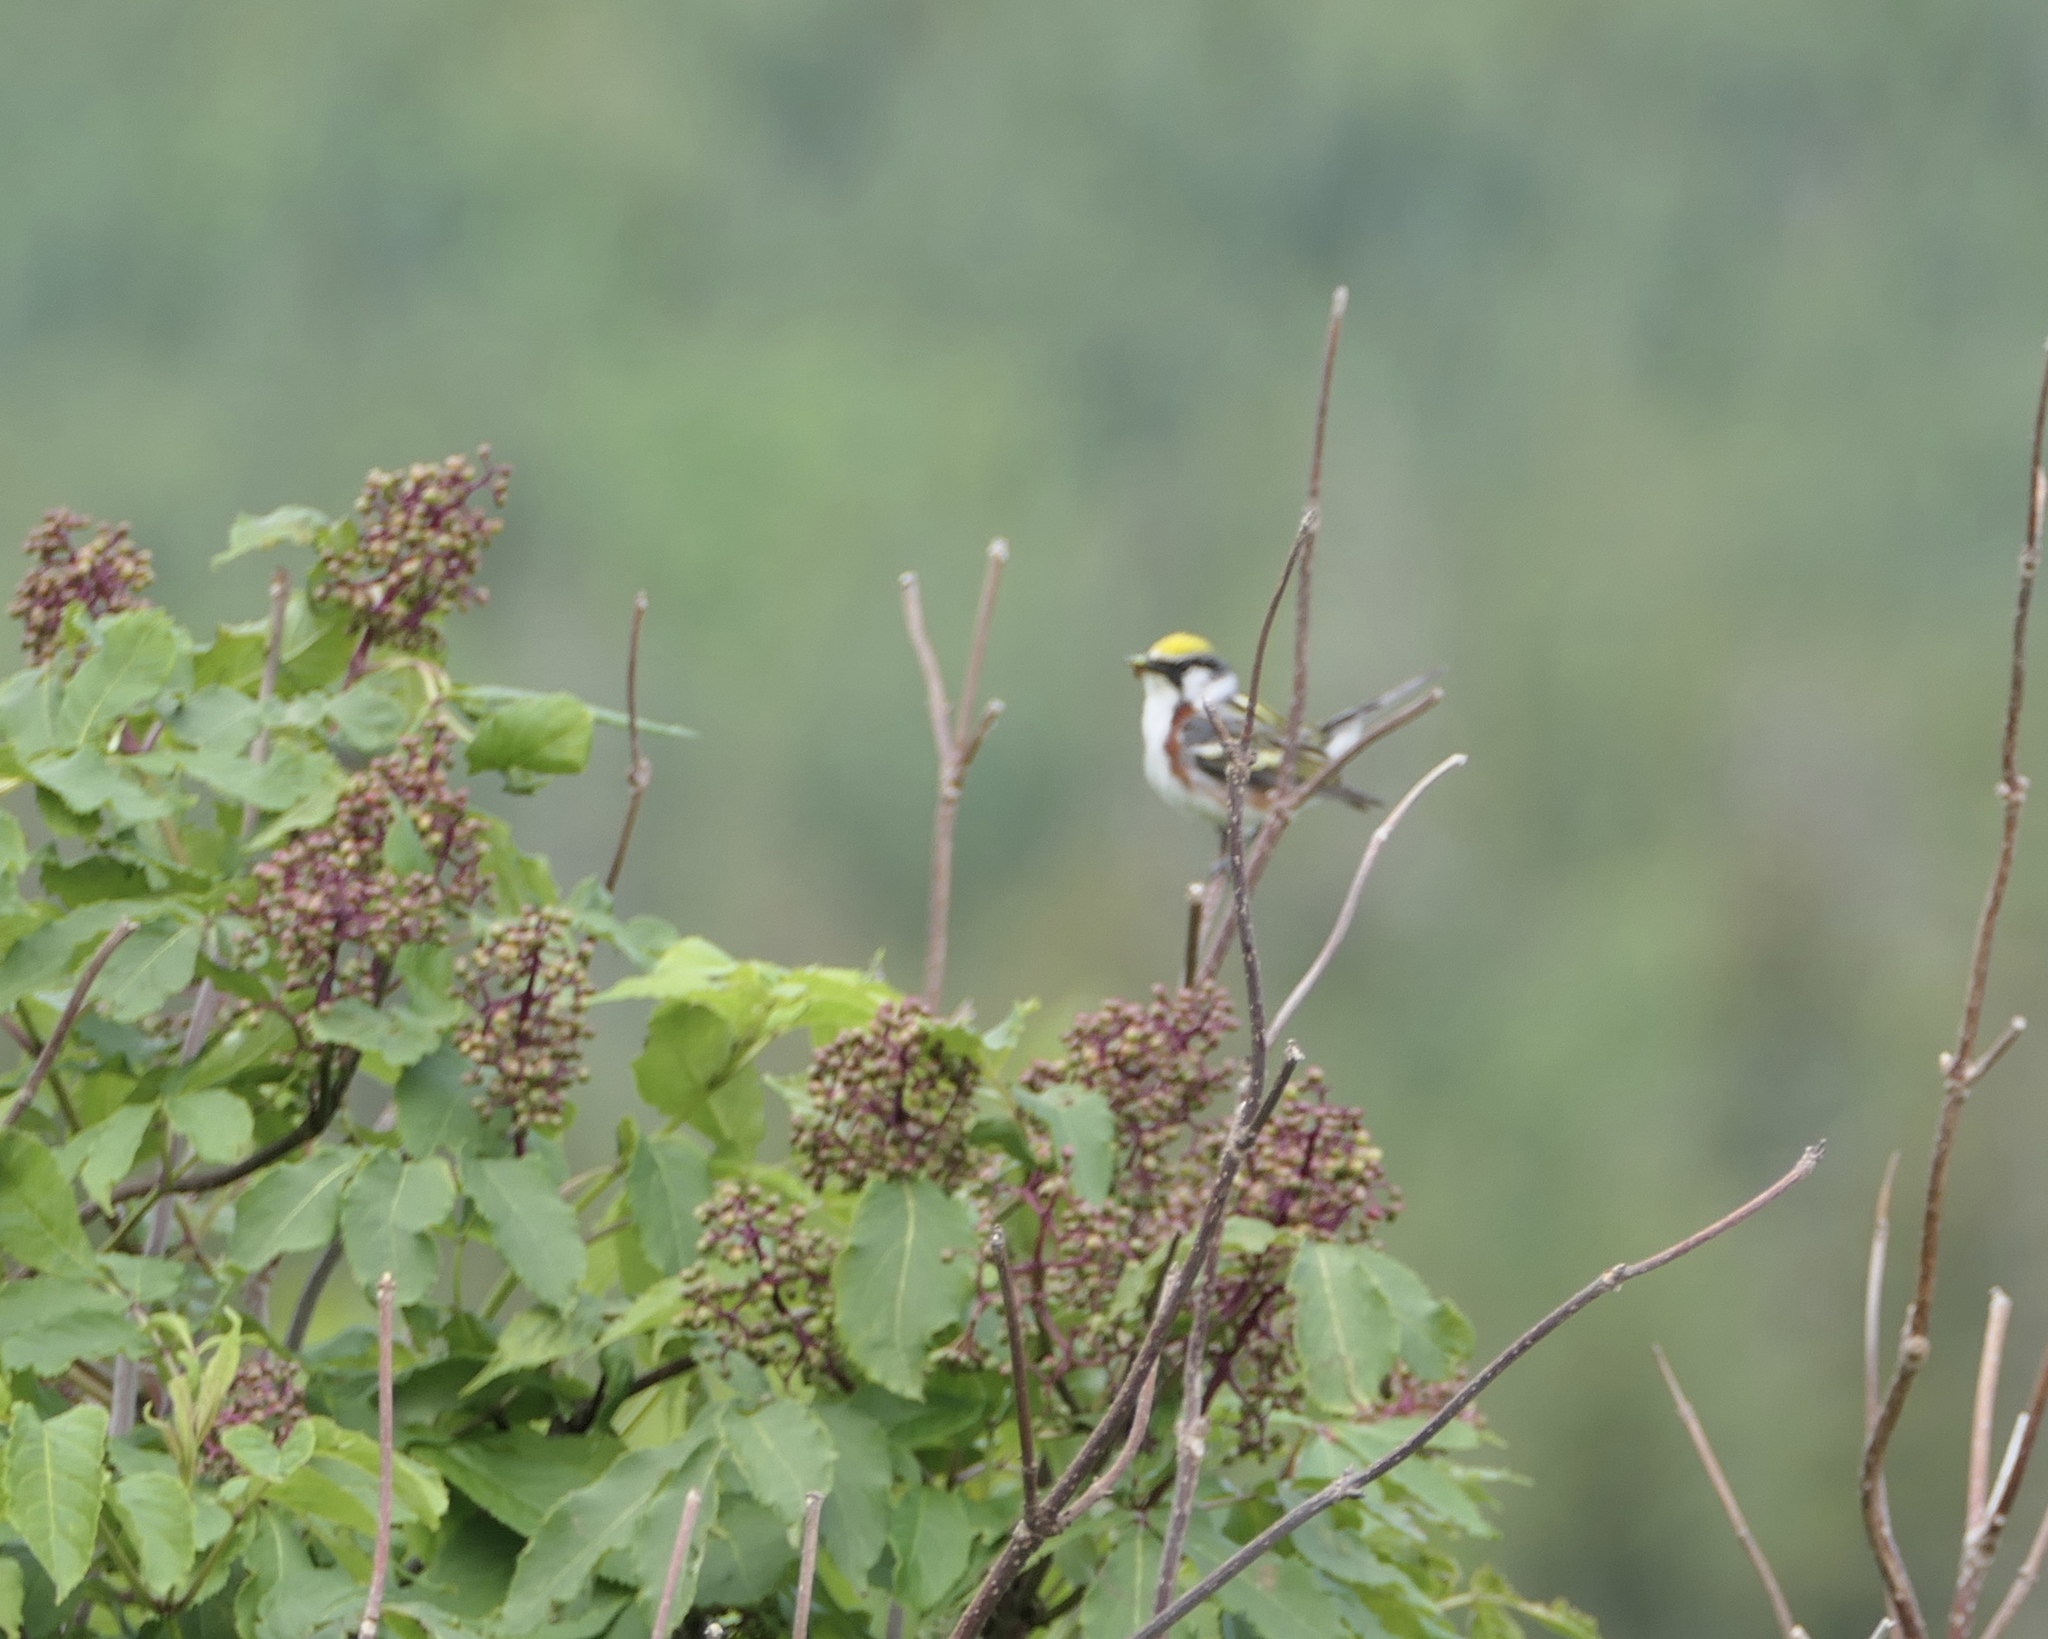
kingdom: Animalia
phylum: Chordata
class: Aves
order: Passeriformes
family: Parulidae
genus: Setophaga
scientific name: Setophaga pensylvanica
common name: Chestnut-sided warbler
